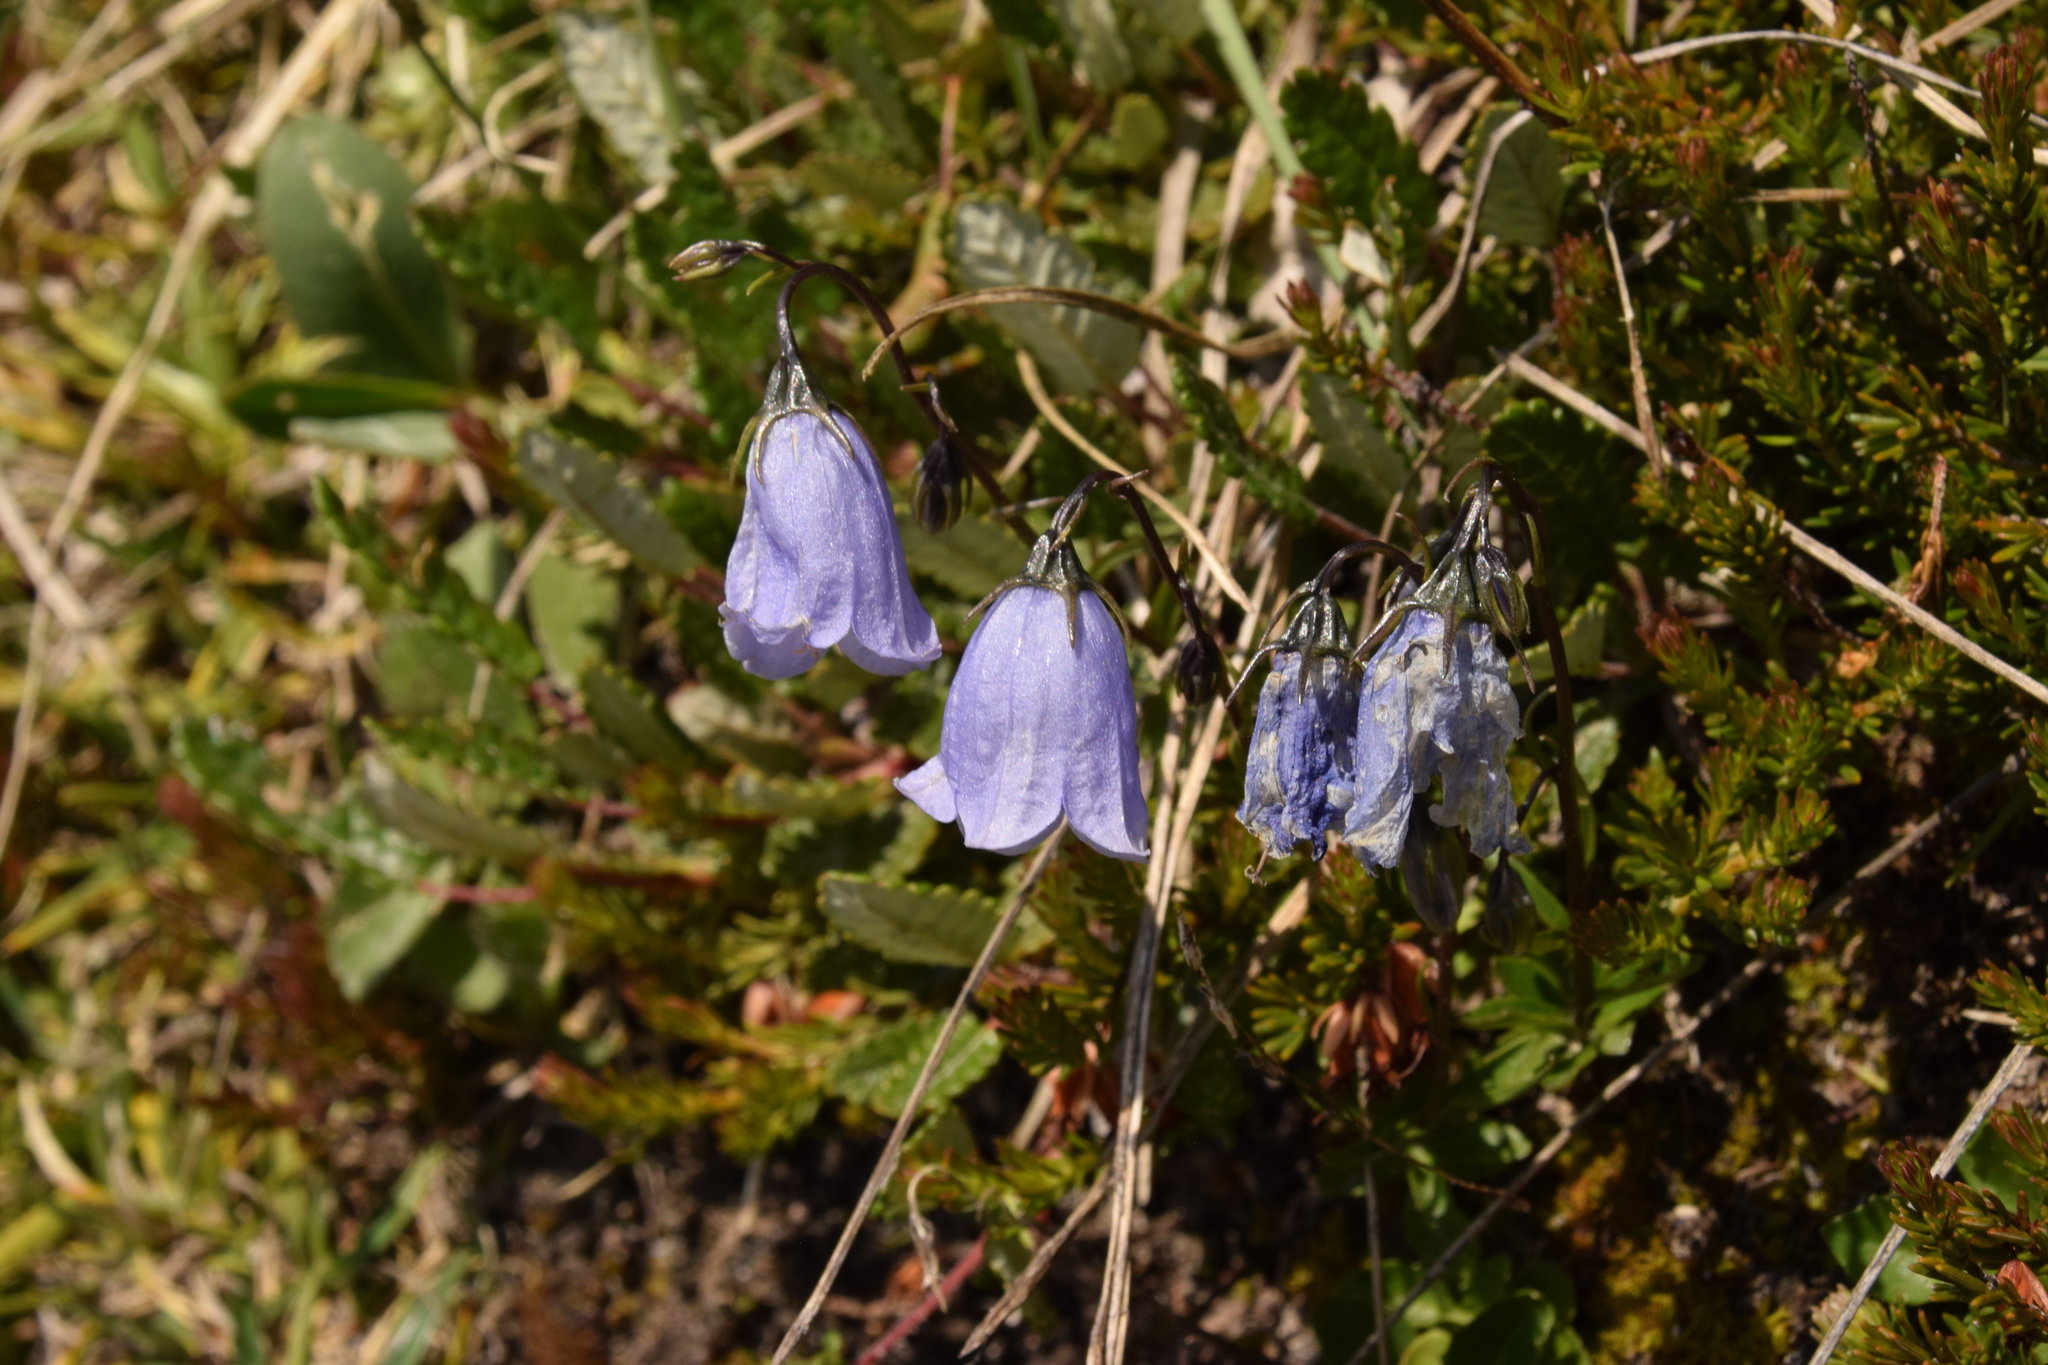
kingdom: Plantae
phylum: Tracheophyta
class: Magnoliopsida
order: Asterales
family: Campanulaceae
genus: Campanula
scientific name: Campanula cochleariifolia
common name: Fairies'-thimbles
